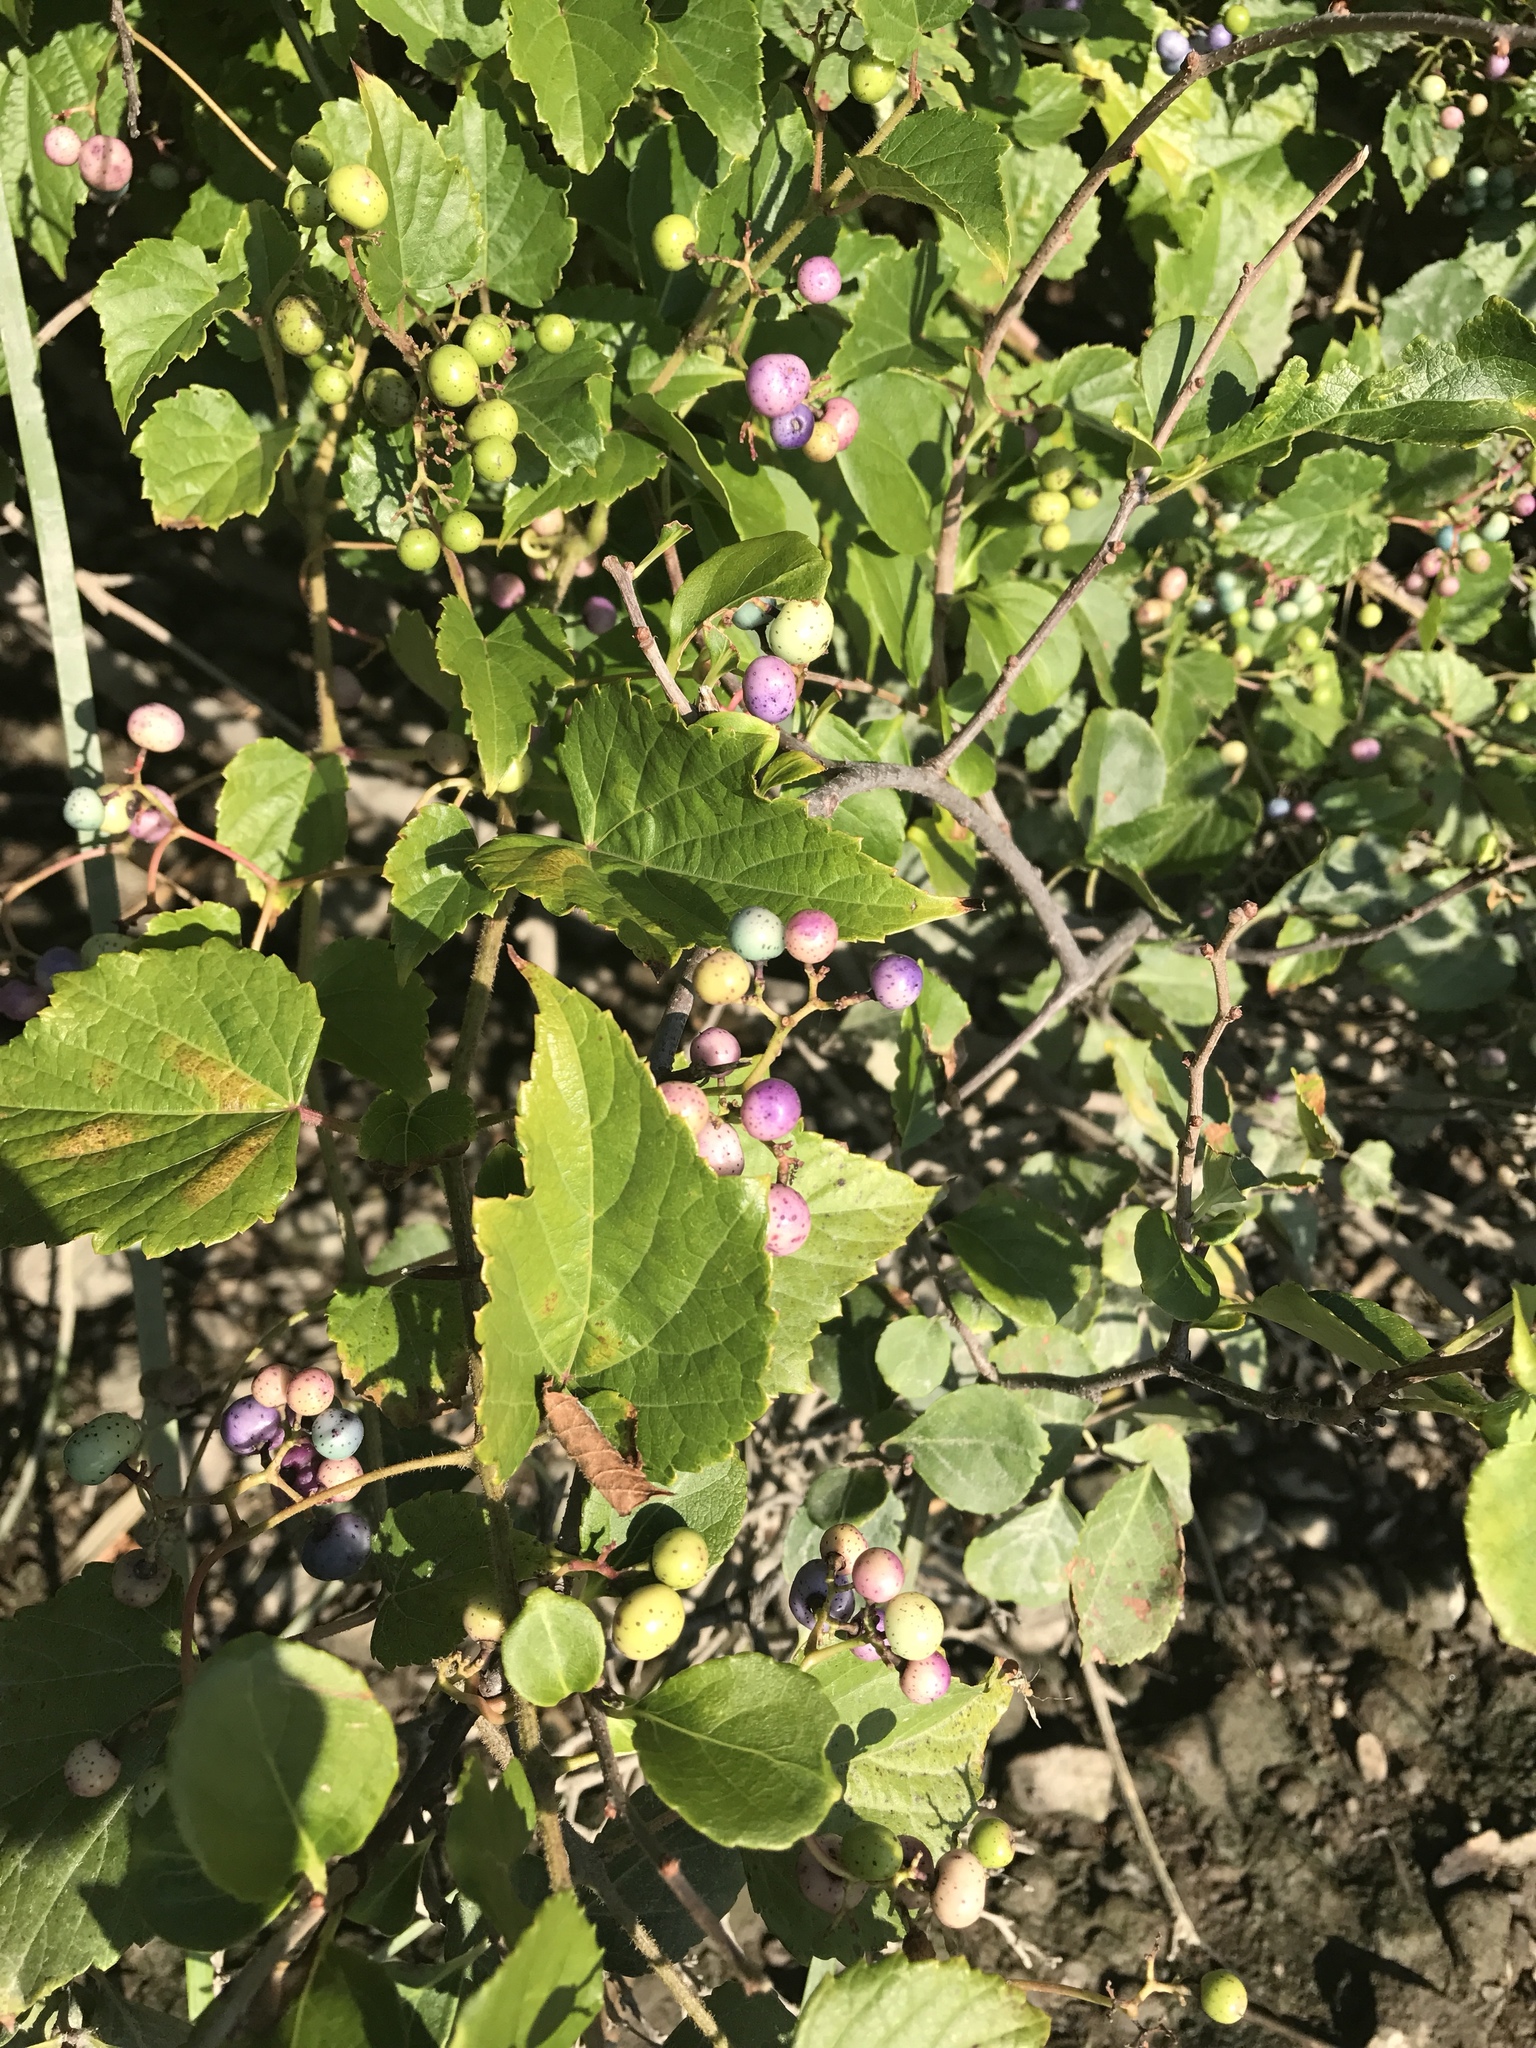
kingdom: Plantae
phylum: Tracheophyta
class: Magnoliopsida
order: Vitales
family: Vitaceae
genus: Ampelopsis
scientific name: Ampelopsis glandulosa
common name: Amur peppervine
